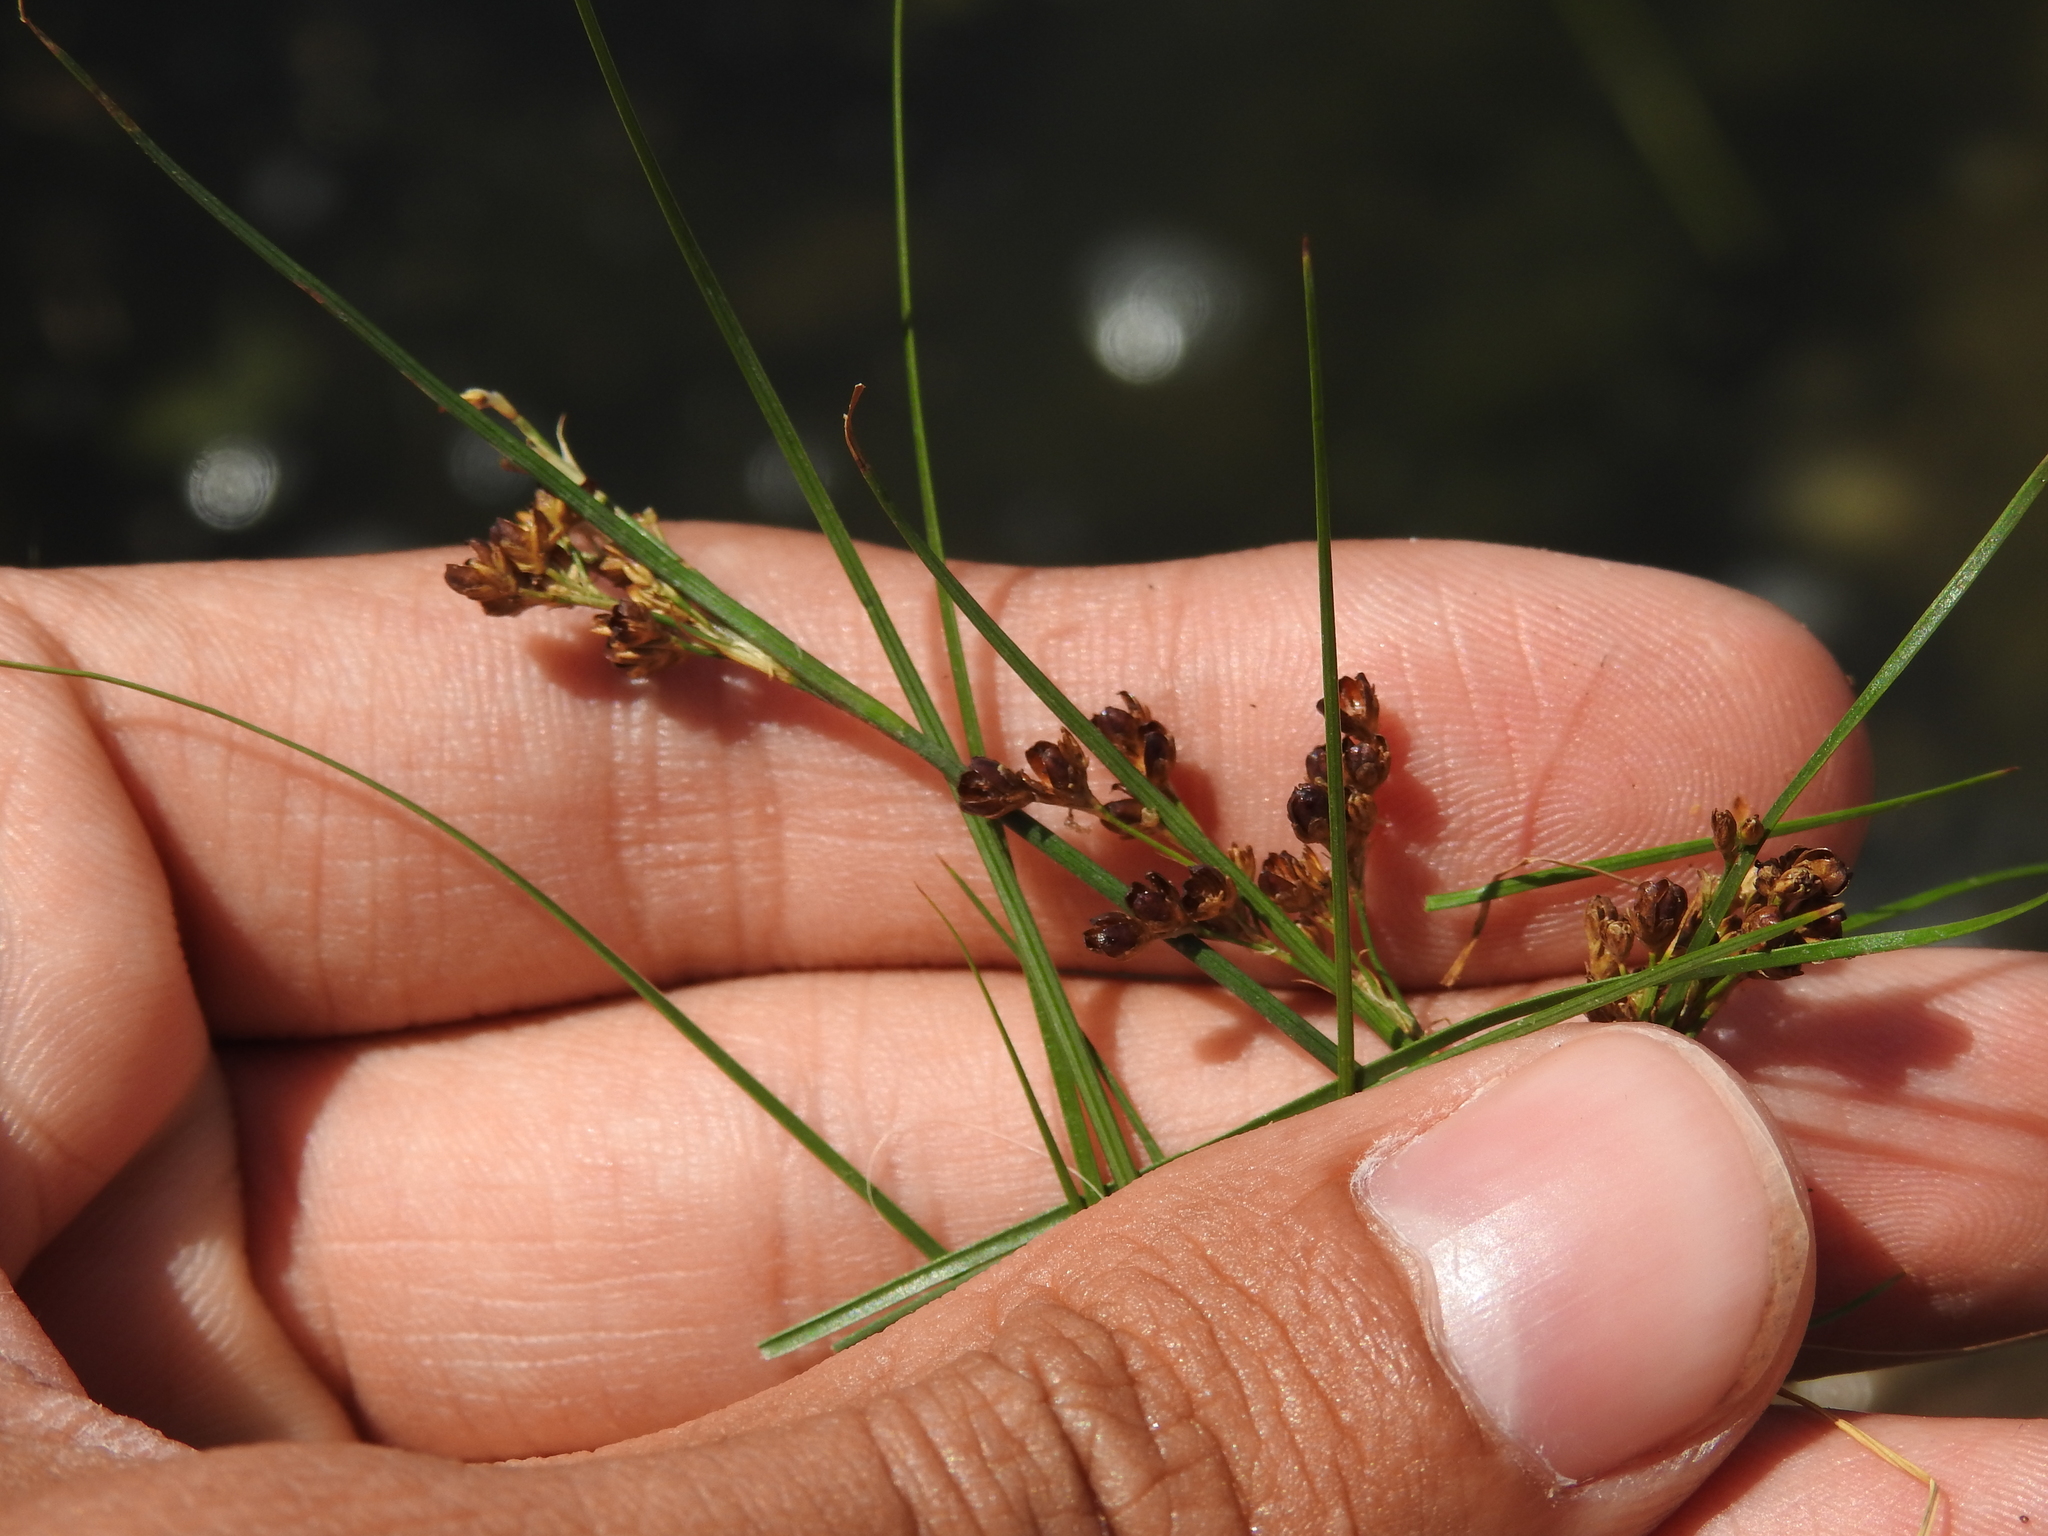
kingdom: Plantae
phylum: Tracheophyta
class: Liliopsida
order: Poales
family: Juncaceae
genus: Juncus
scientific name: Juncus compressus
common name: Round-fruited rush
